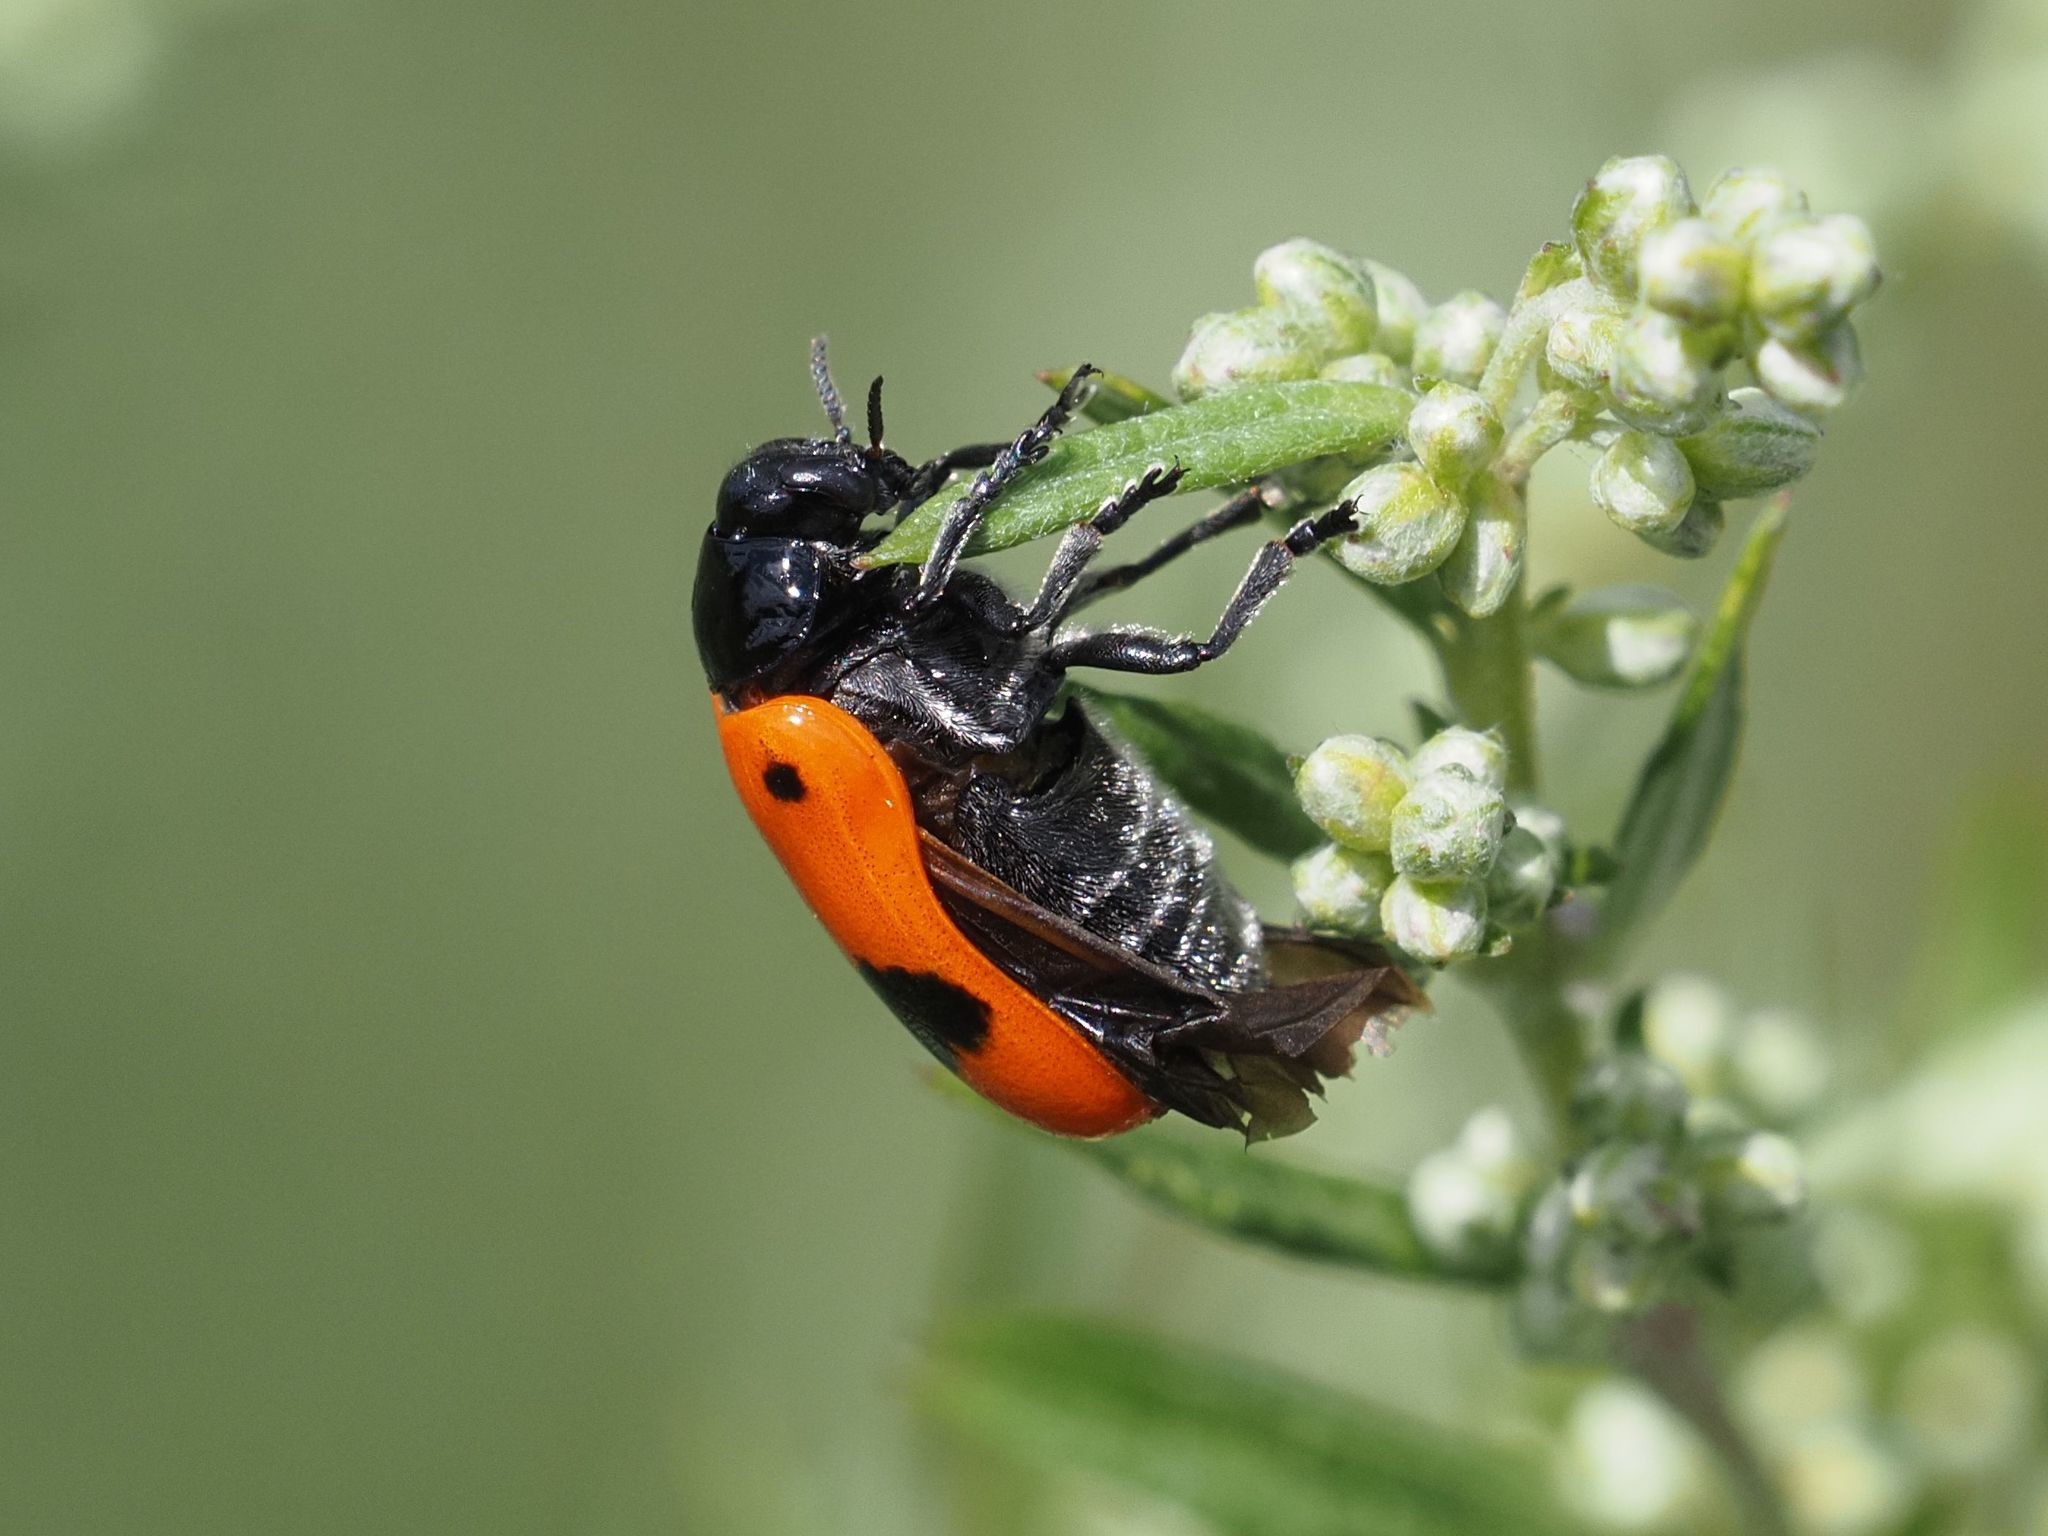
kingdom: Animalia
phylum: Arthropoda
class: Insecta
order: Coleoptera
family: Chrysomelidae
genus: Clytra
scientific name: Clytra laeviuscula
